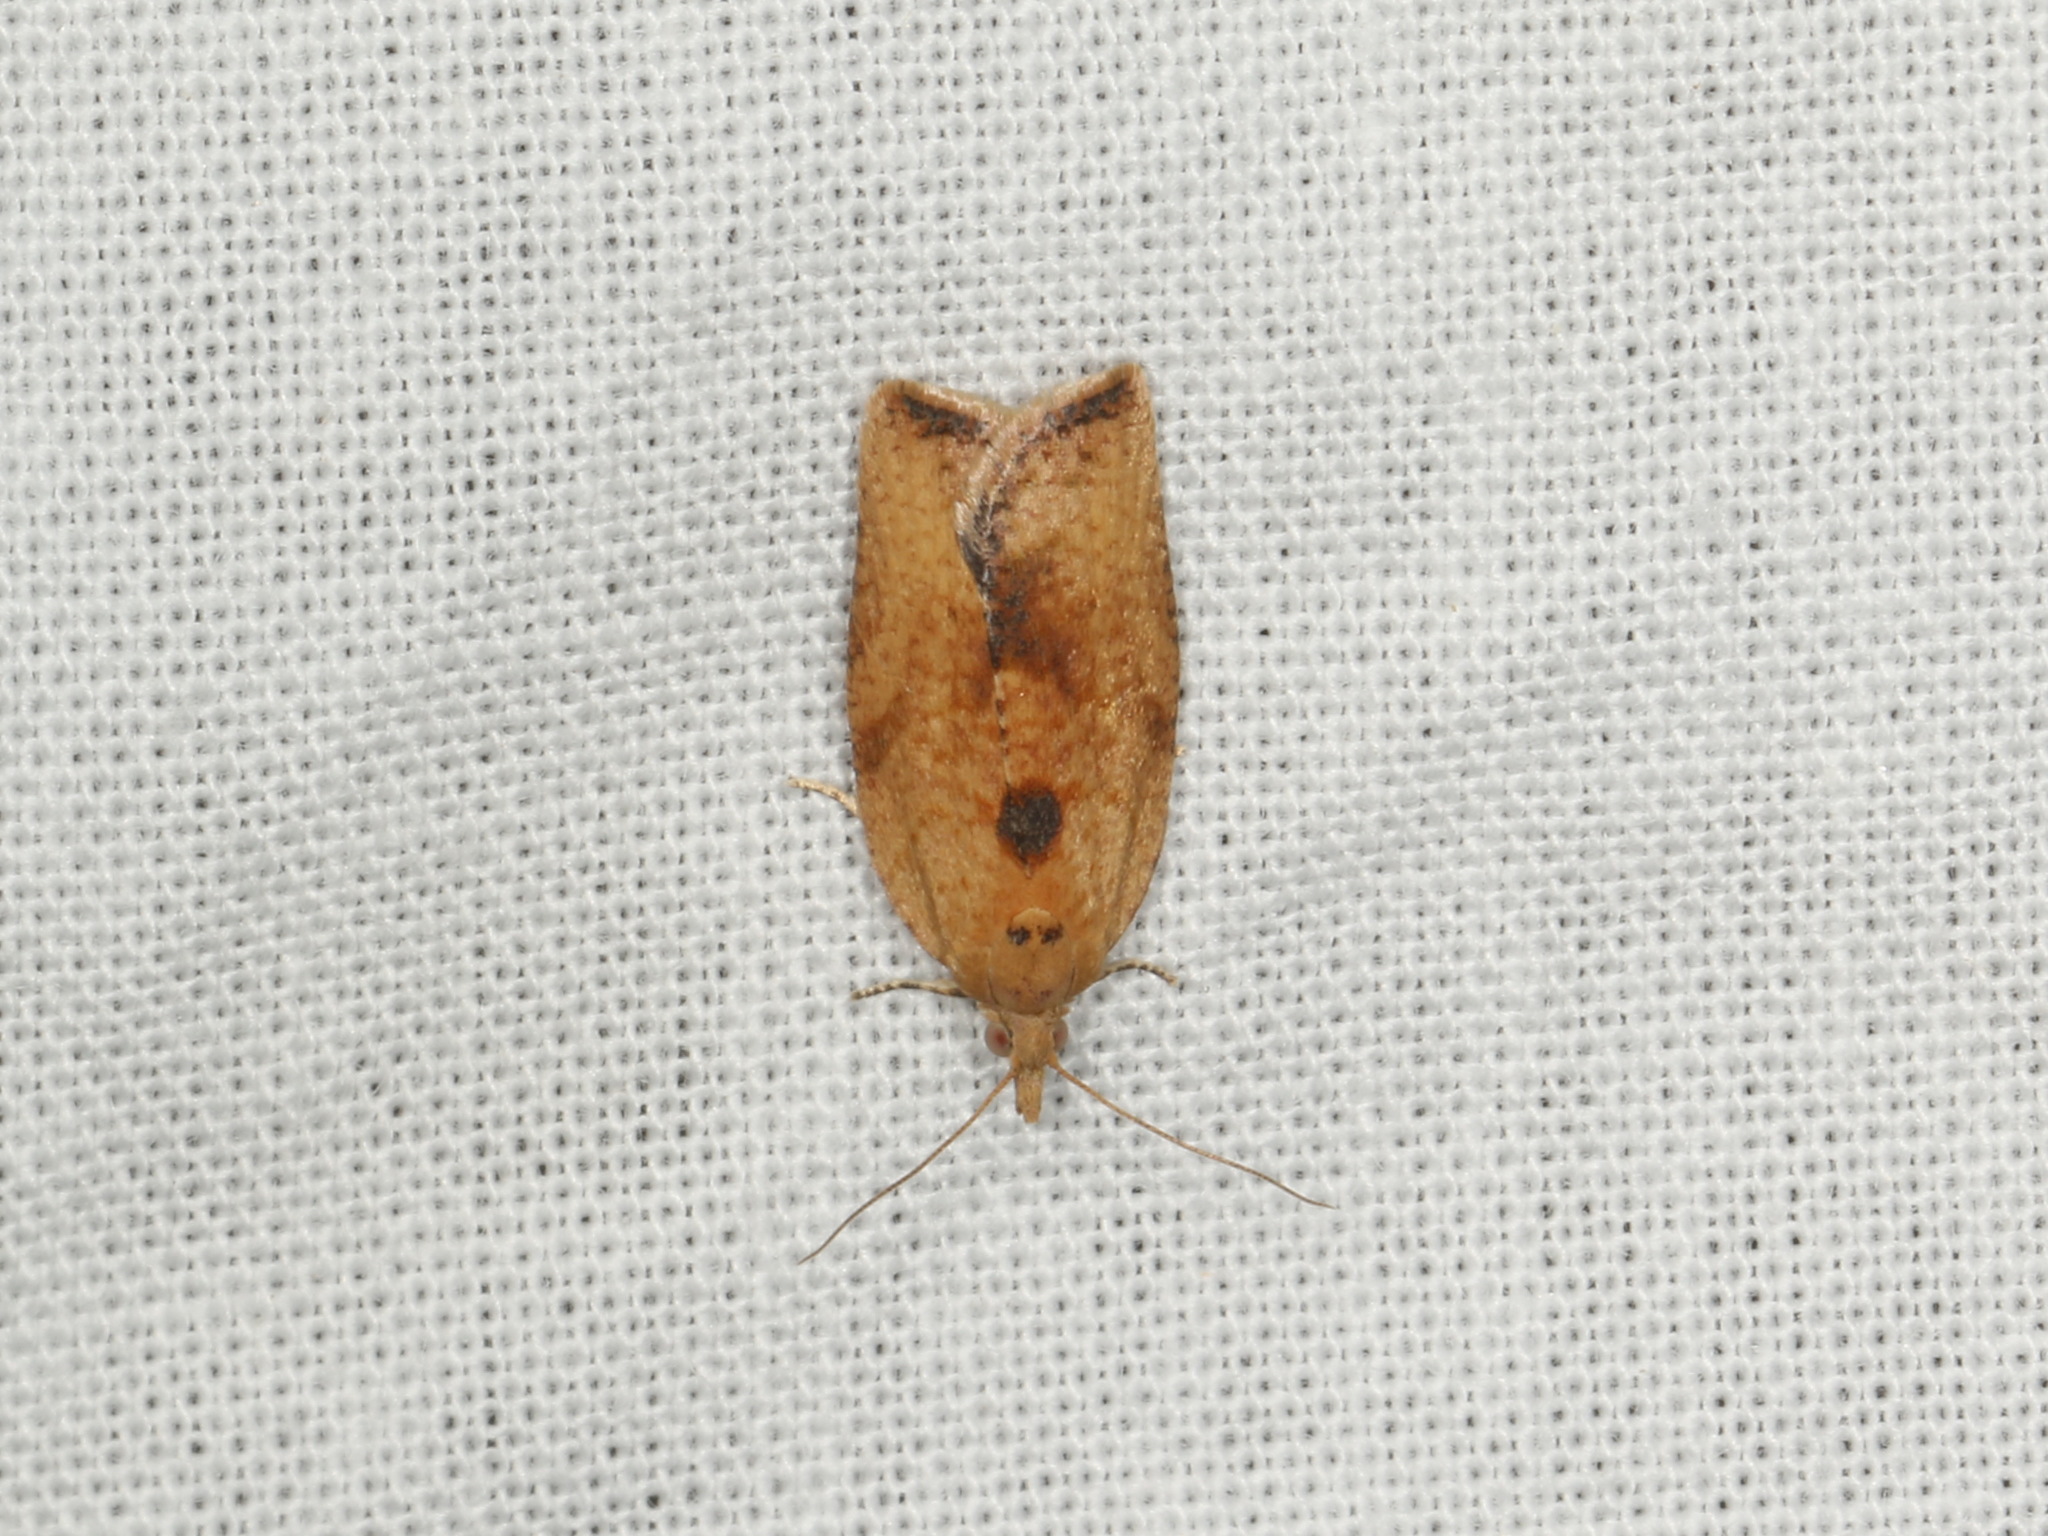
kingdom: Animalia
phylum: Arthropoda
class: Insecta
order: Lepidoptera
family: Tortricidae
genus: Epiphyas
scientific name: Epiphyas postvittana
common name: Light brown apple moth
